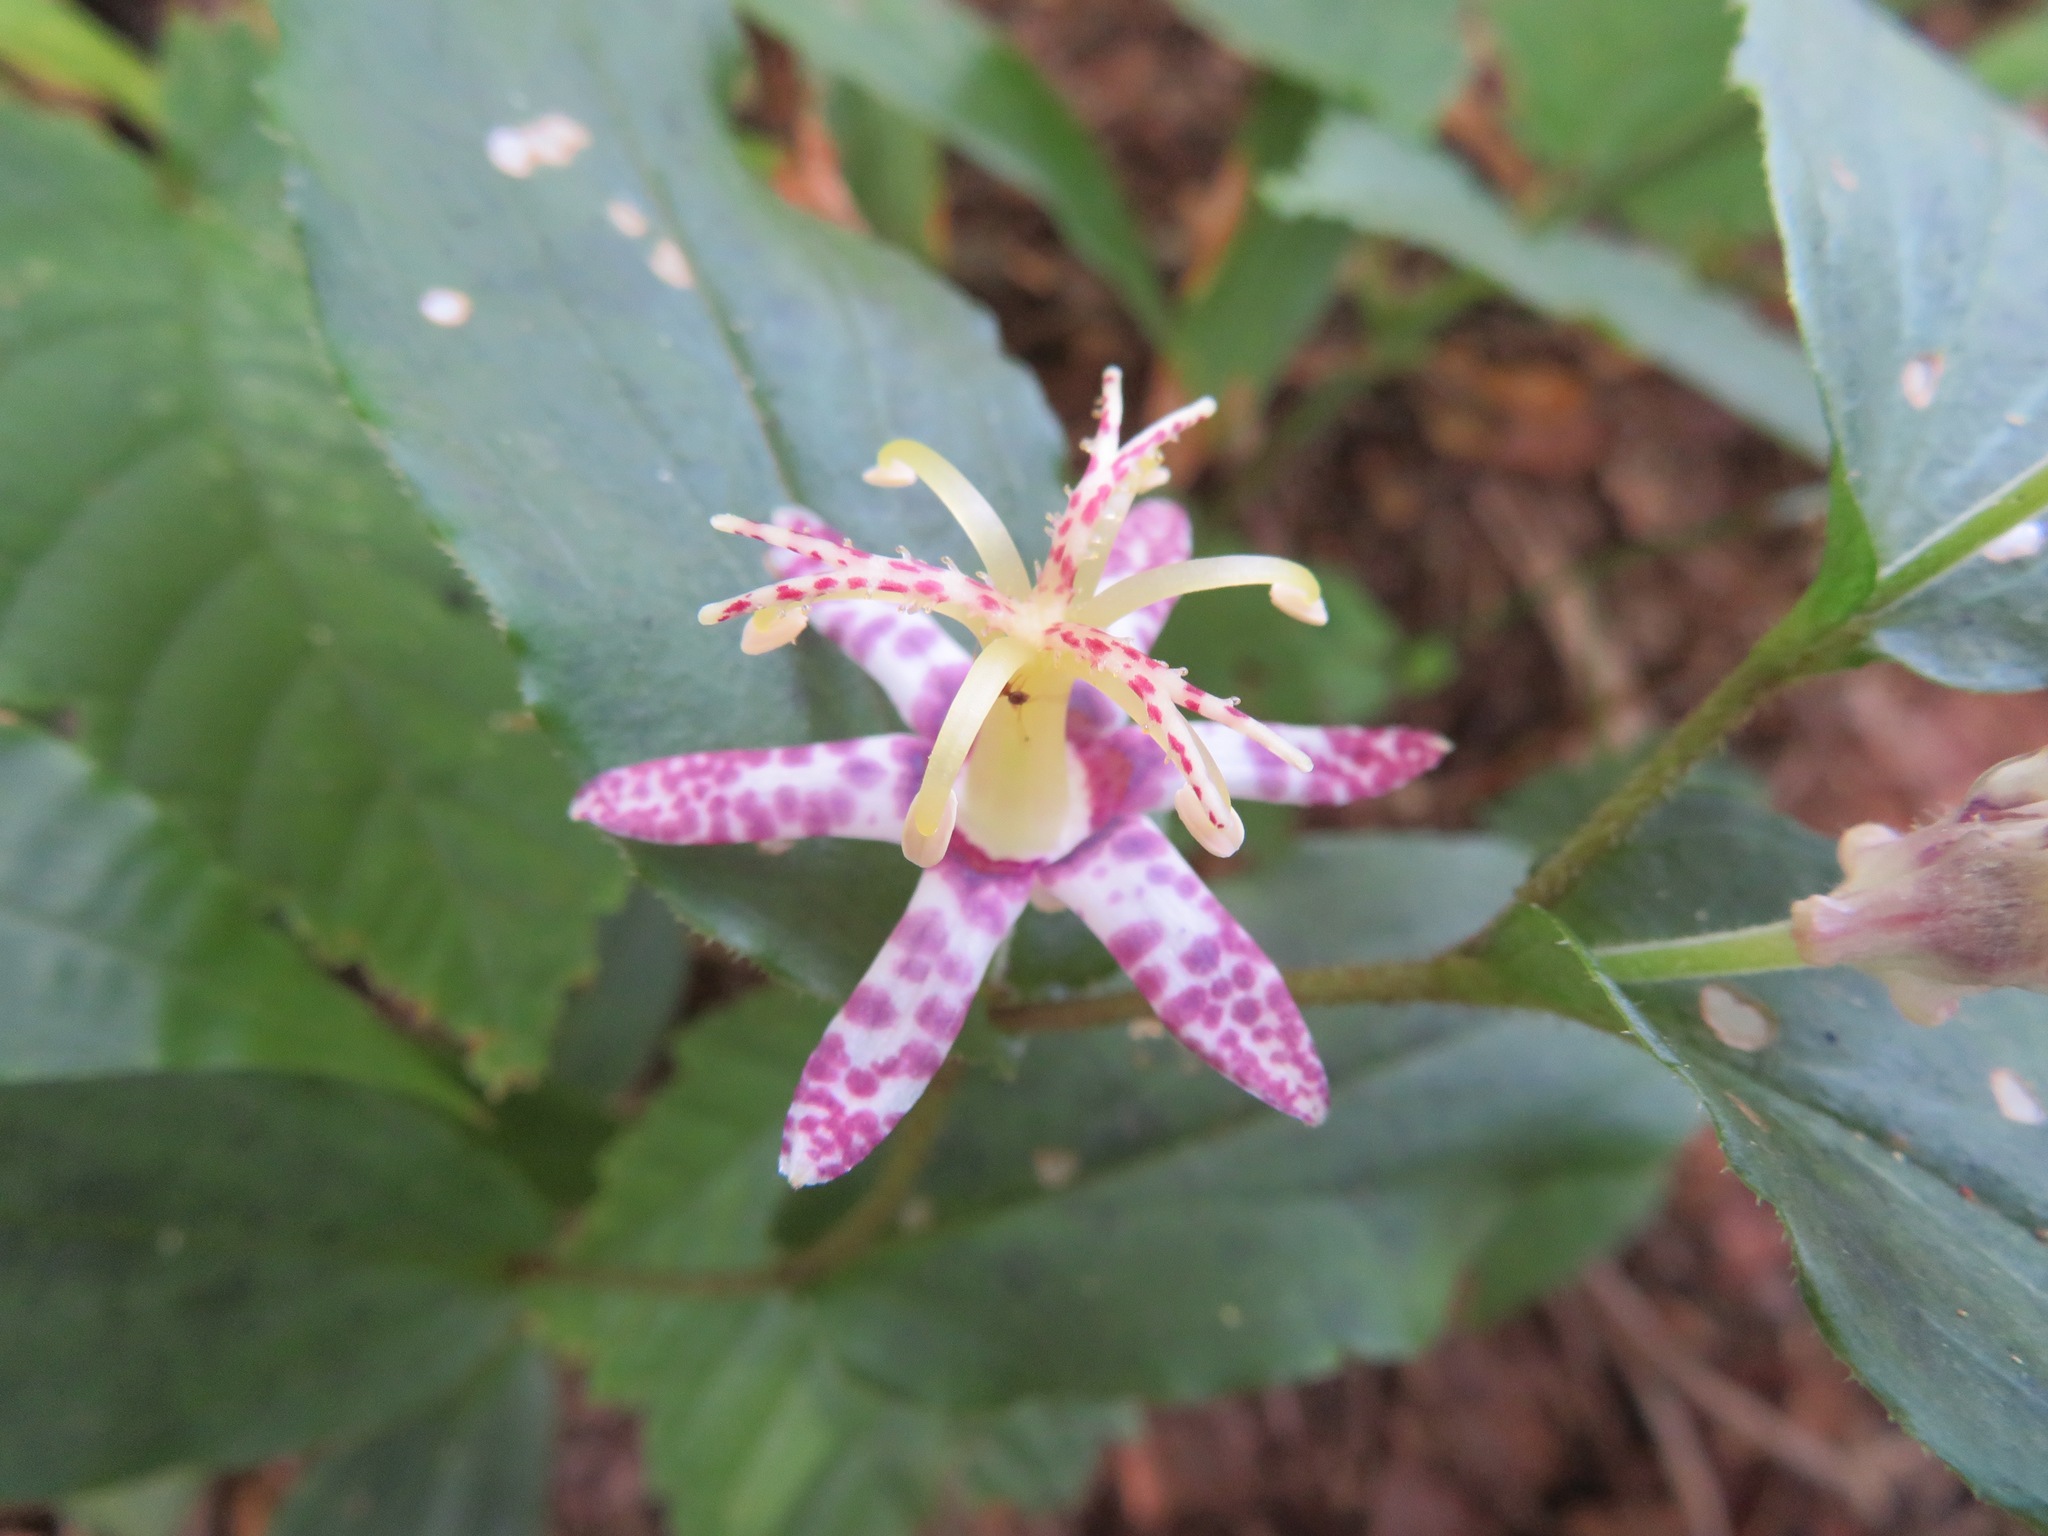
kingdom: Plantae
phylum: Tracheophyta
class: Liliopsida
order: Liliales
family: Liliaceae
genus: Tricyrtis
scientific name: Tricyrtis affinis
